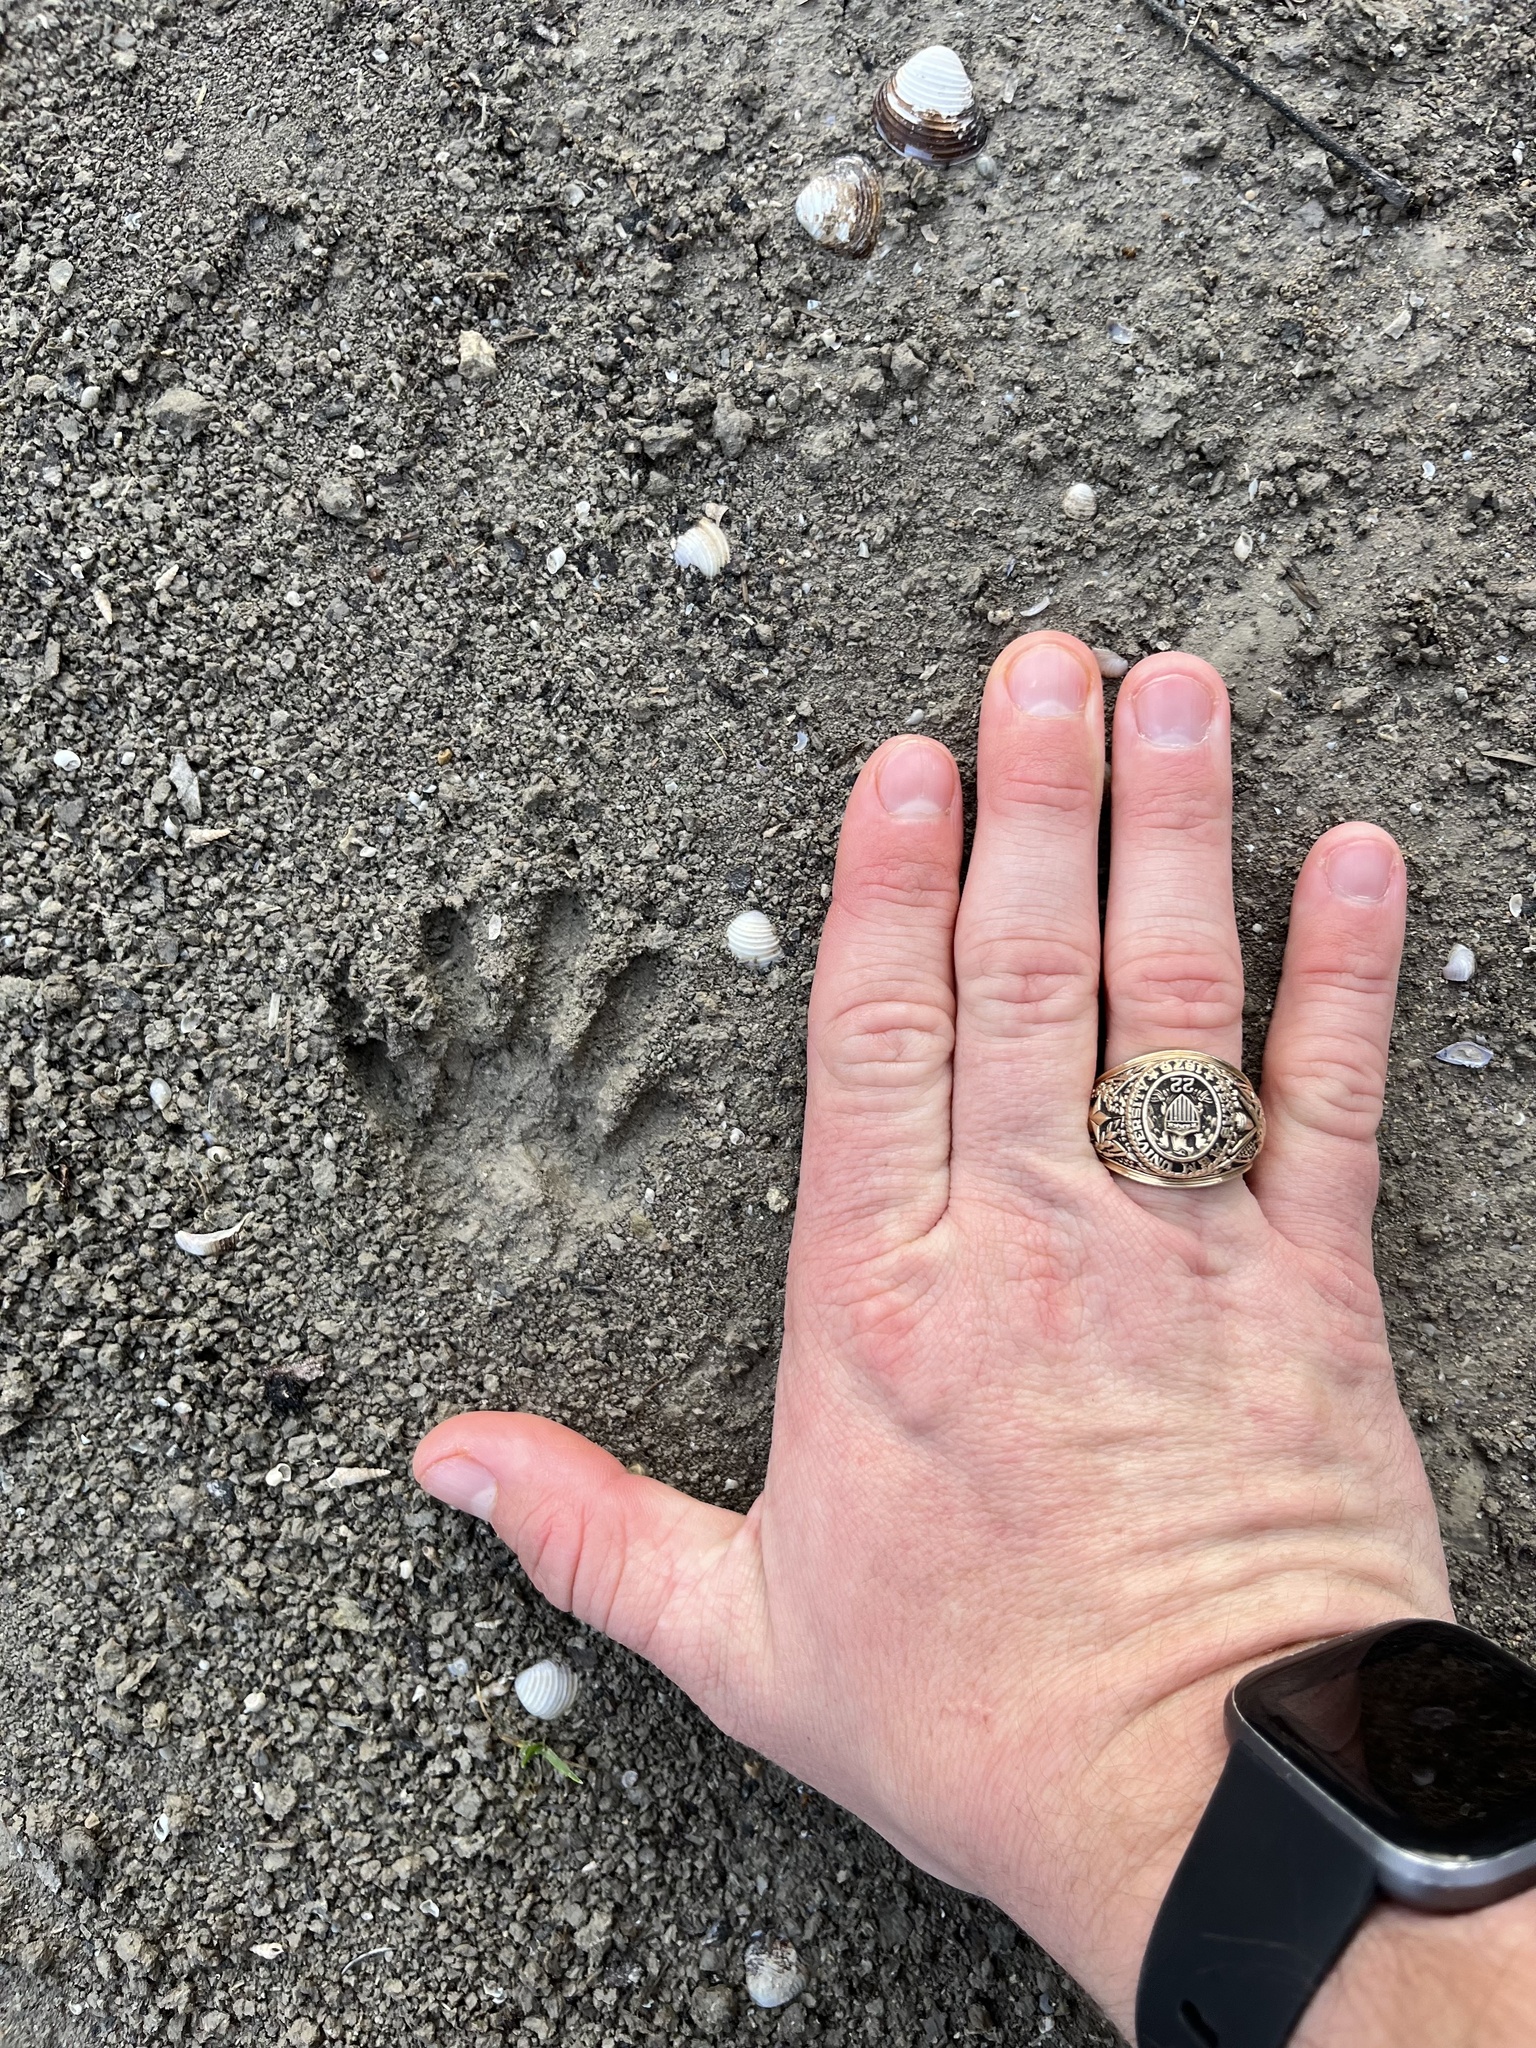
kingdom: Animalia
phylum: Chordata
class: Mammalia
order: Carnivora
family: Procyonidae
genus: Procyon
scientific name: Procyon lotor
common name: Raccoon
